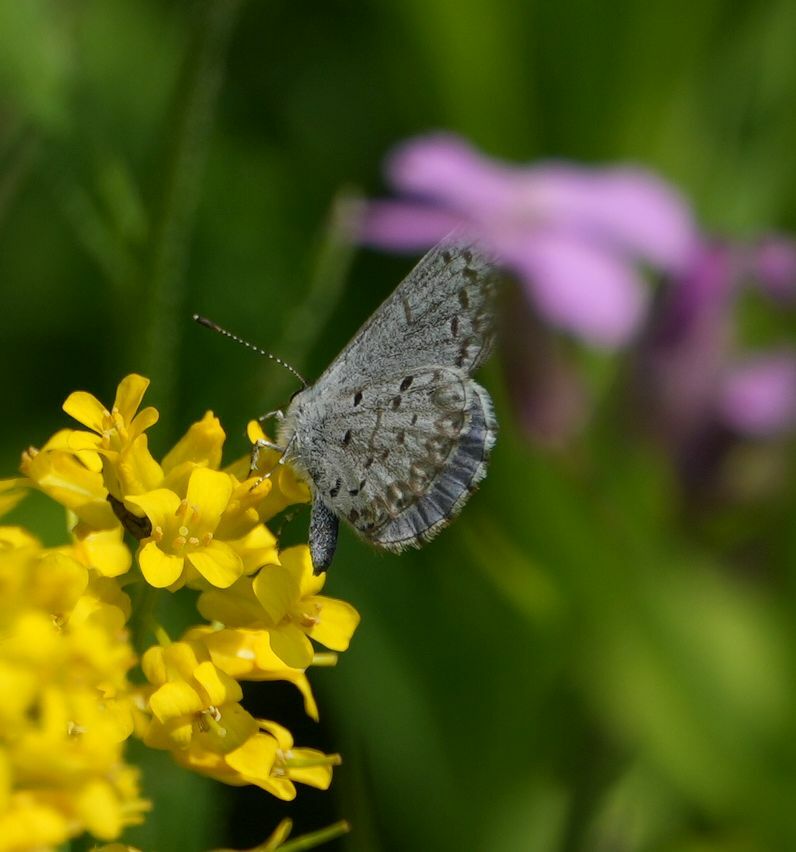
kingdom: Animalia
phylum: Arthropoda
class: Insecta
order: Lepidoptera
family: Lycaenidae
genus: Celastrina
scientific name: Celastrina lucia
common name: Lucia azure
